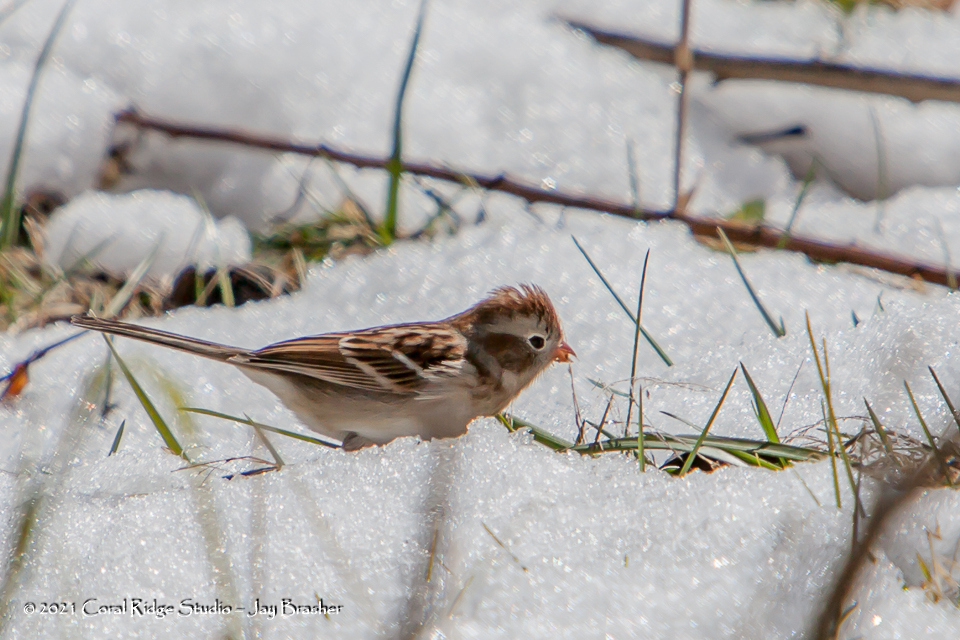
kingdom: Animalia
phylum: Chordata
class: Aves
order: Passeriformes
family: Passerellidae
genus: Spizella
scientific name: Spizella pusilla
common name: Field sparrow
